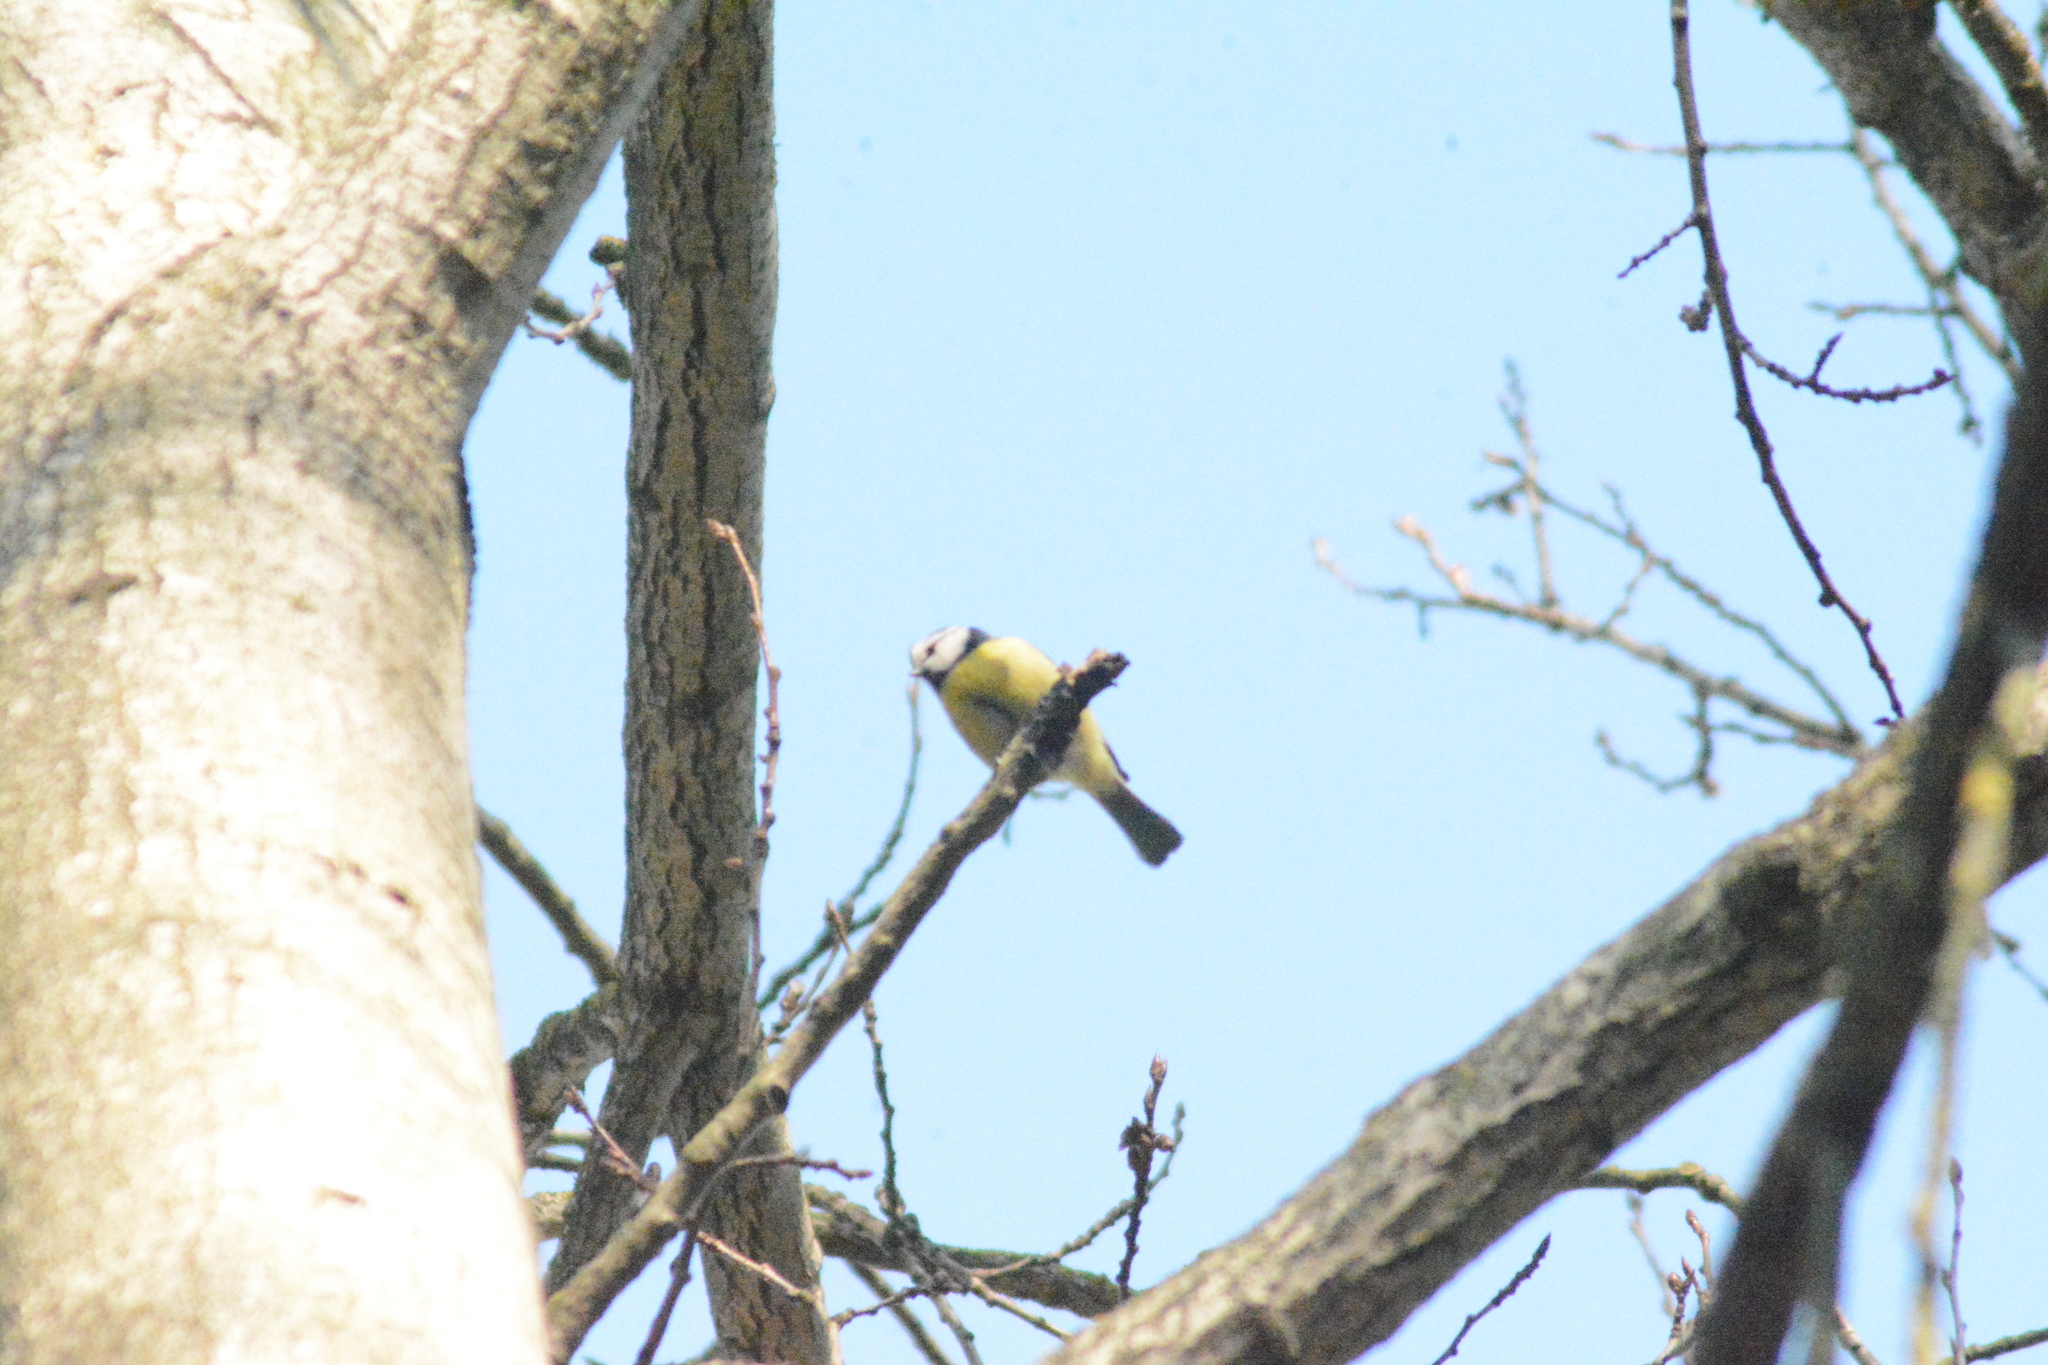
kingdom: Animalia
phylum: Chordata
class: Aves
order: Passeriformes
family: Paridae
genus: Cyanistes
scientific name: Cyanistes caeruleus
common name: Eurasian blue tit
